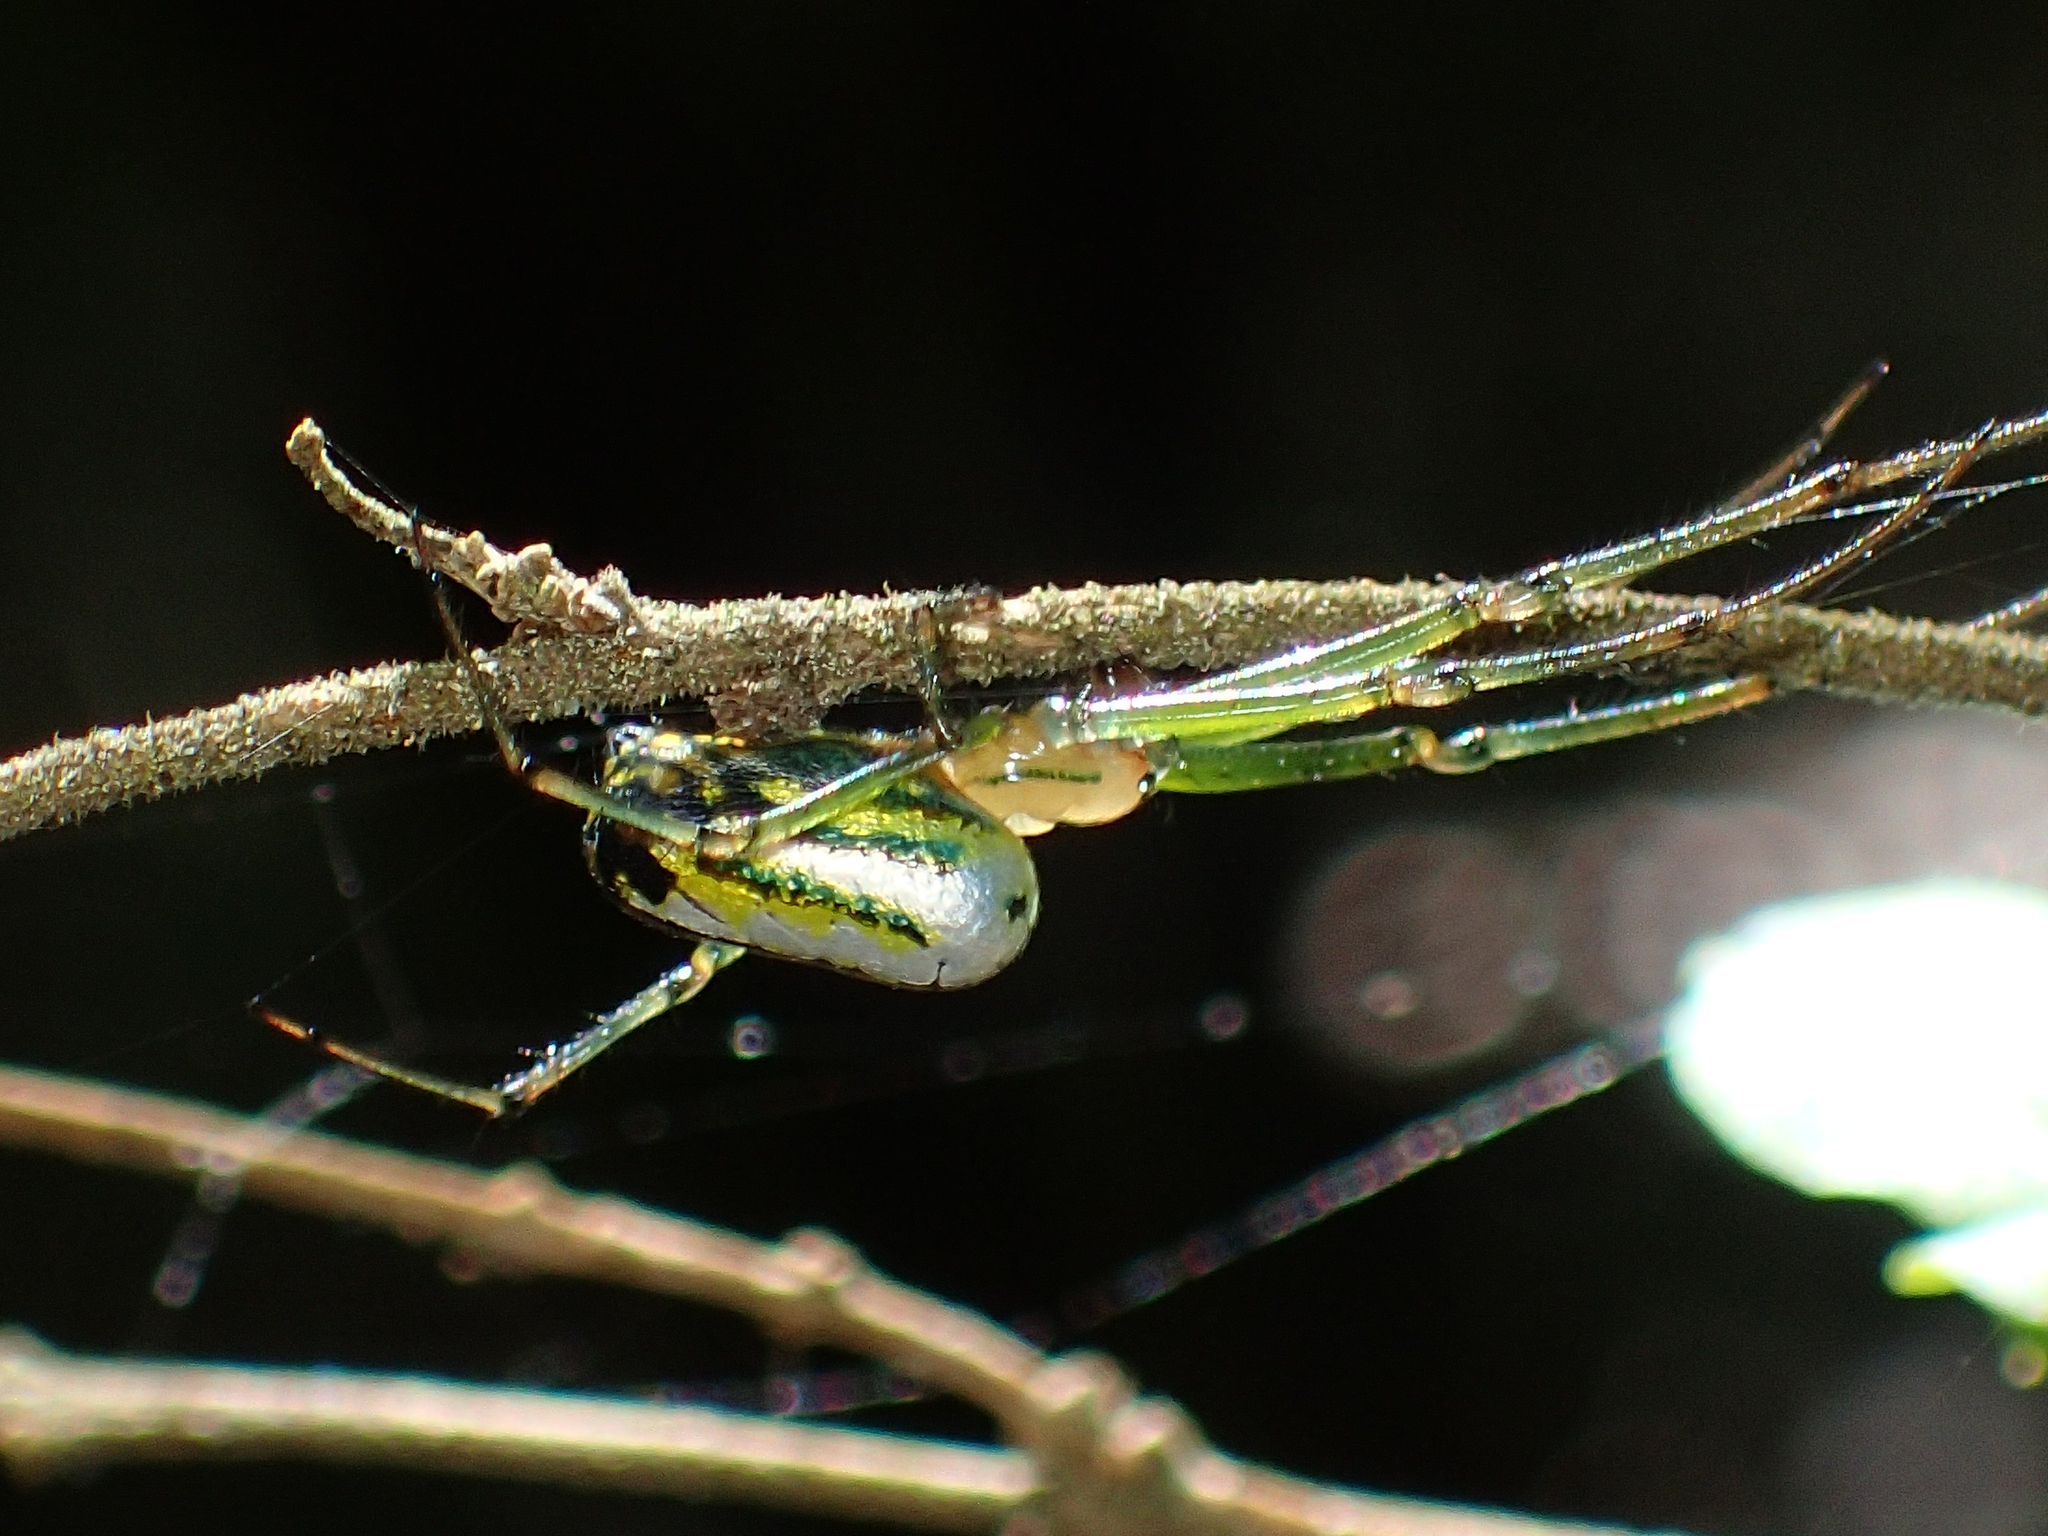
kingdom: Animalia
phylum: Arthropoda
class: Arachnida
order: Araneae
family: Tetragnathidae
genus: Leucauge
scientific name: Leucauge venusta
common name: Longjawed orb weavers
